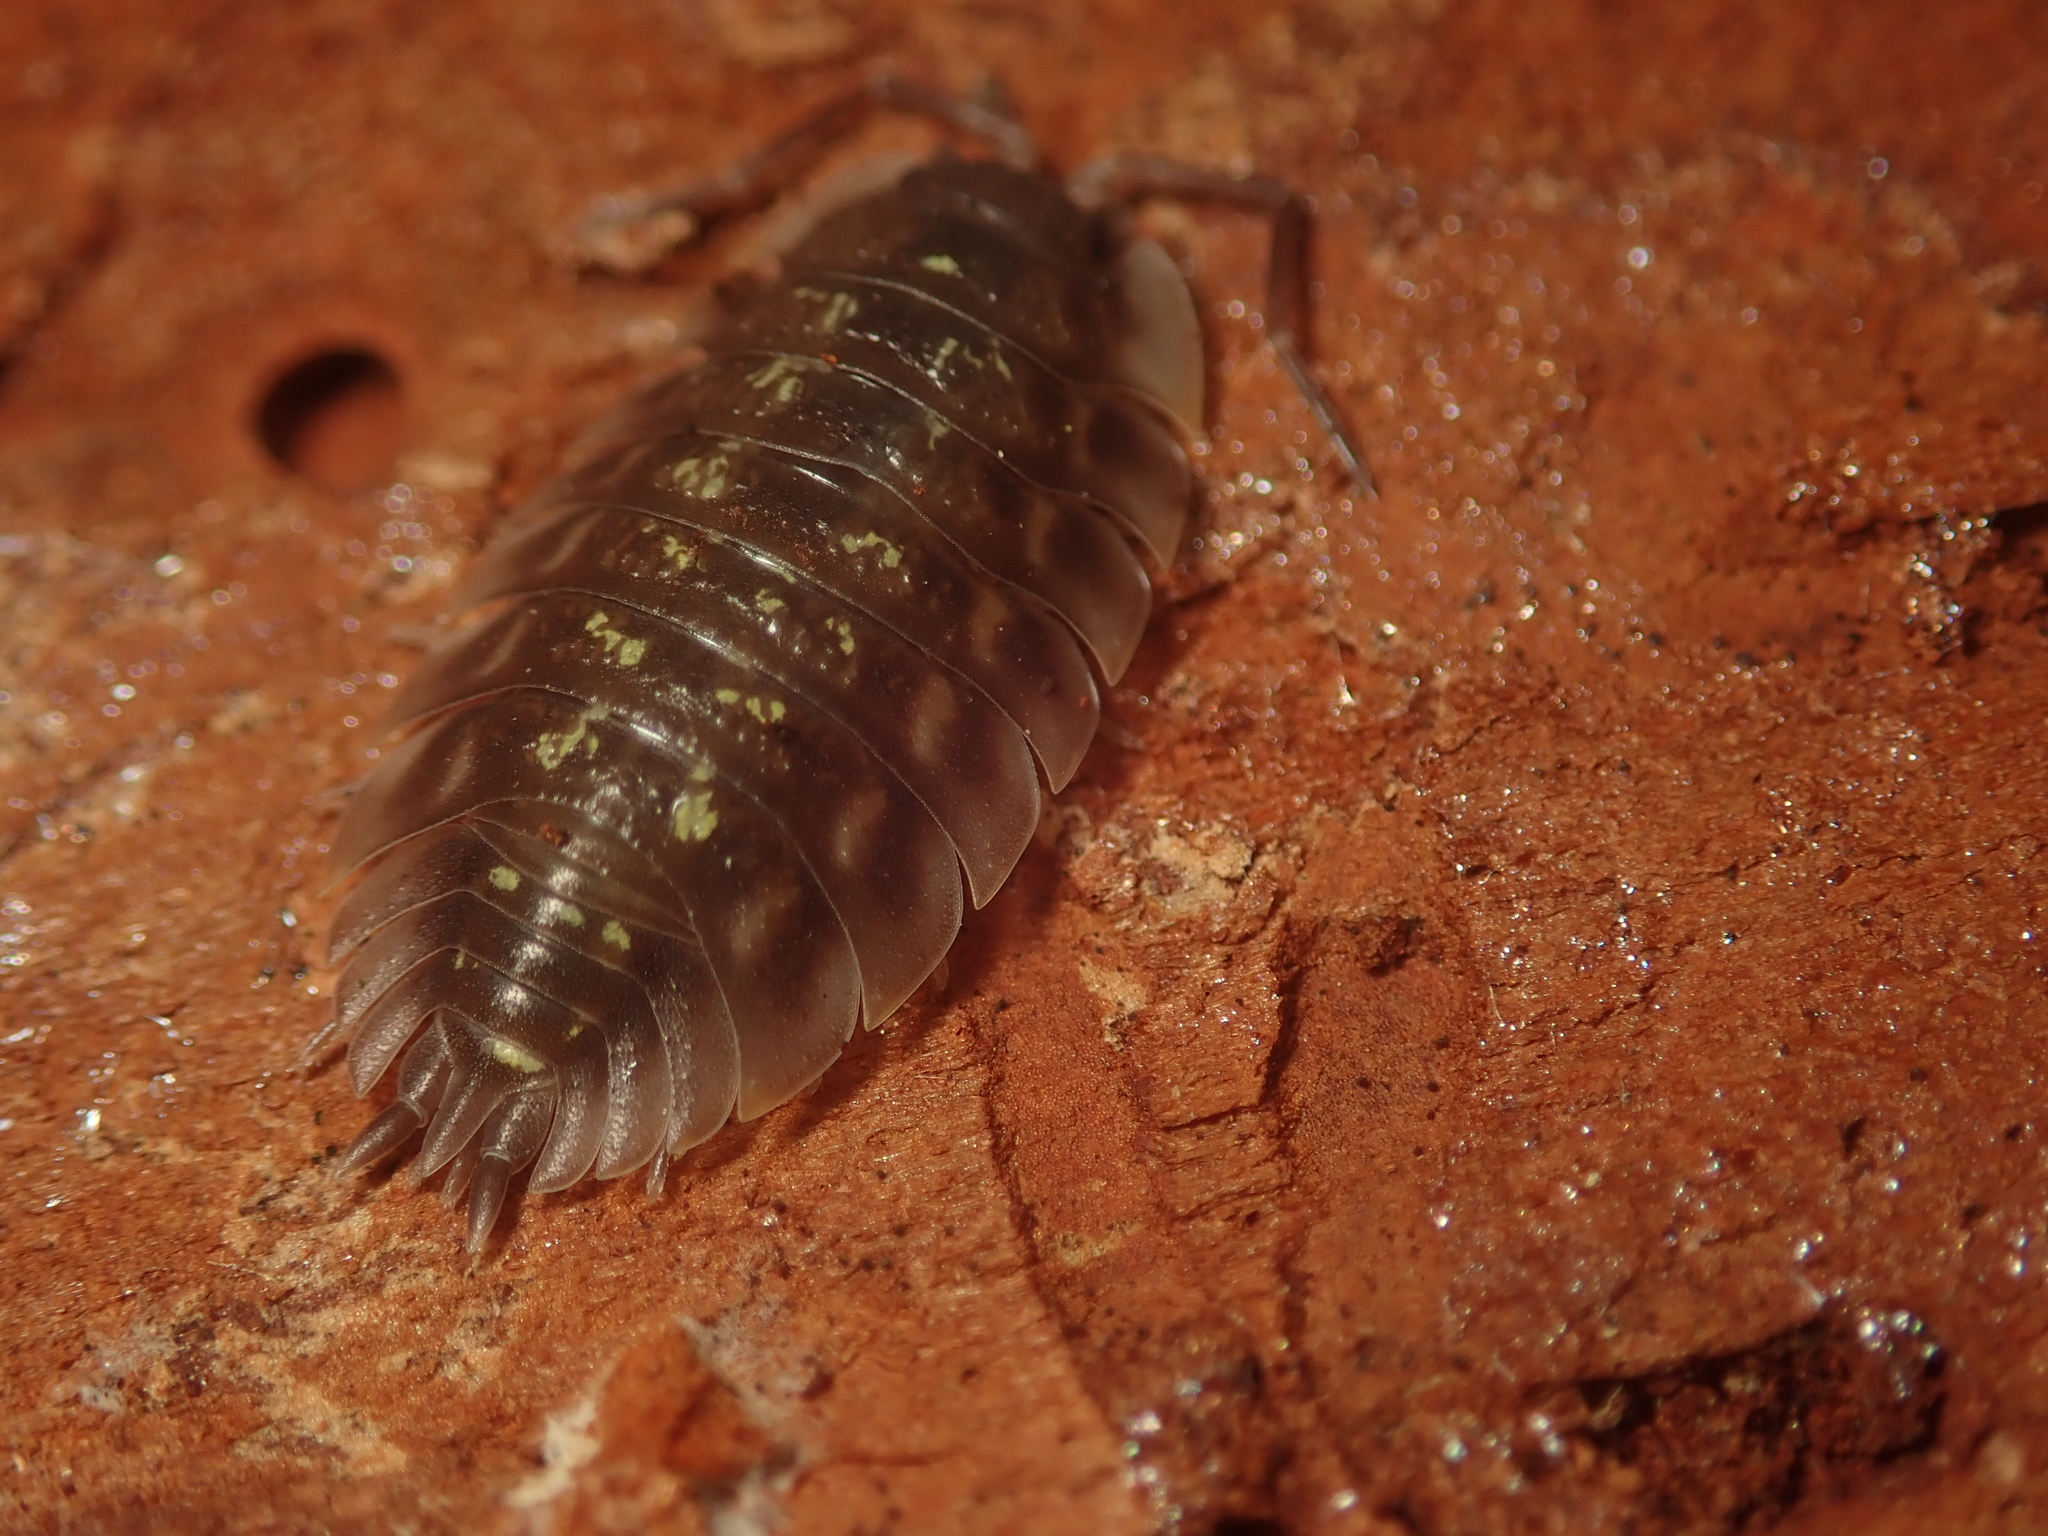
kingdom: Animalia
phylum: Arthropoda
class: Malacostraca
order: Isopoda
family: Oniscidae
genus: Oniscus
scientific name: Oniscus asellus
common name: Common shiny woodlouse
